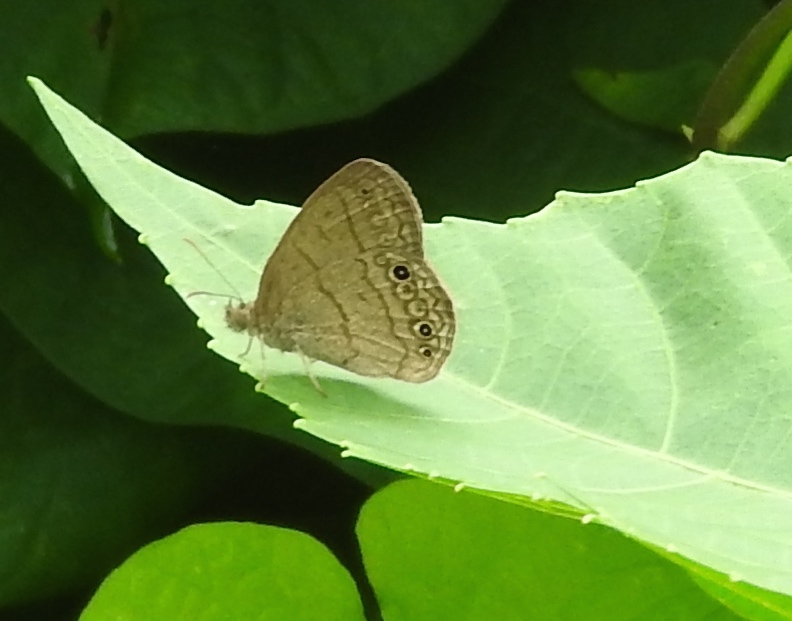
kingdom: Animalia
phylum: Arthropoda
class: Insecta
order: Lepidoptera
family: Nymphalidae
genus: Hermeuptychia
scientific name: Hermeuptychia hermes
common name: Hermes satyr
